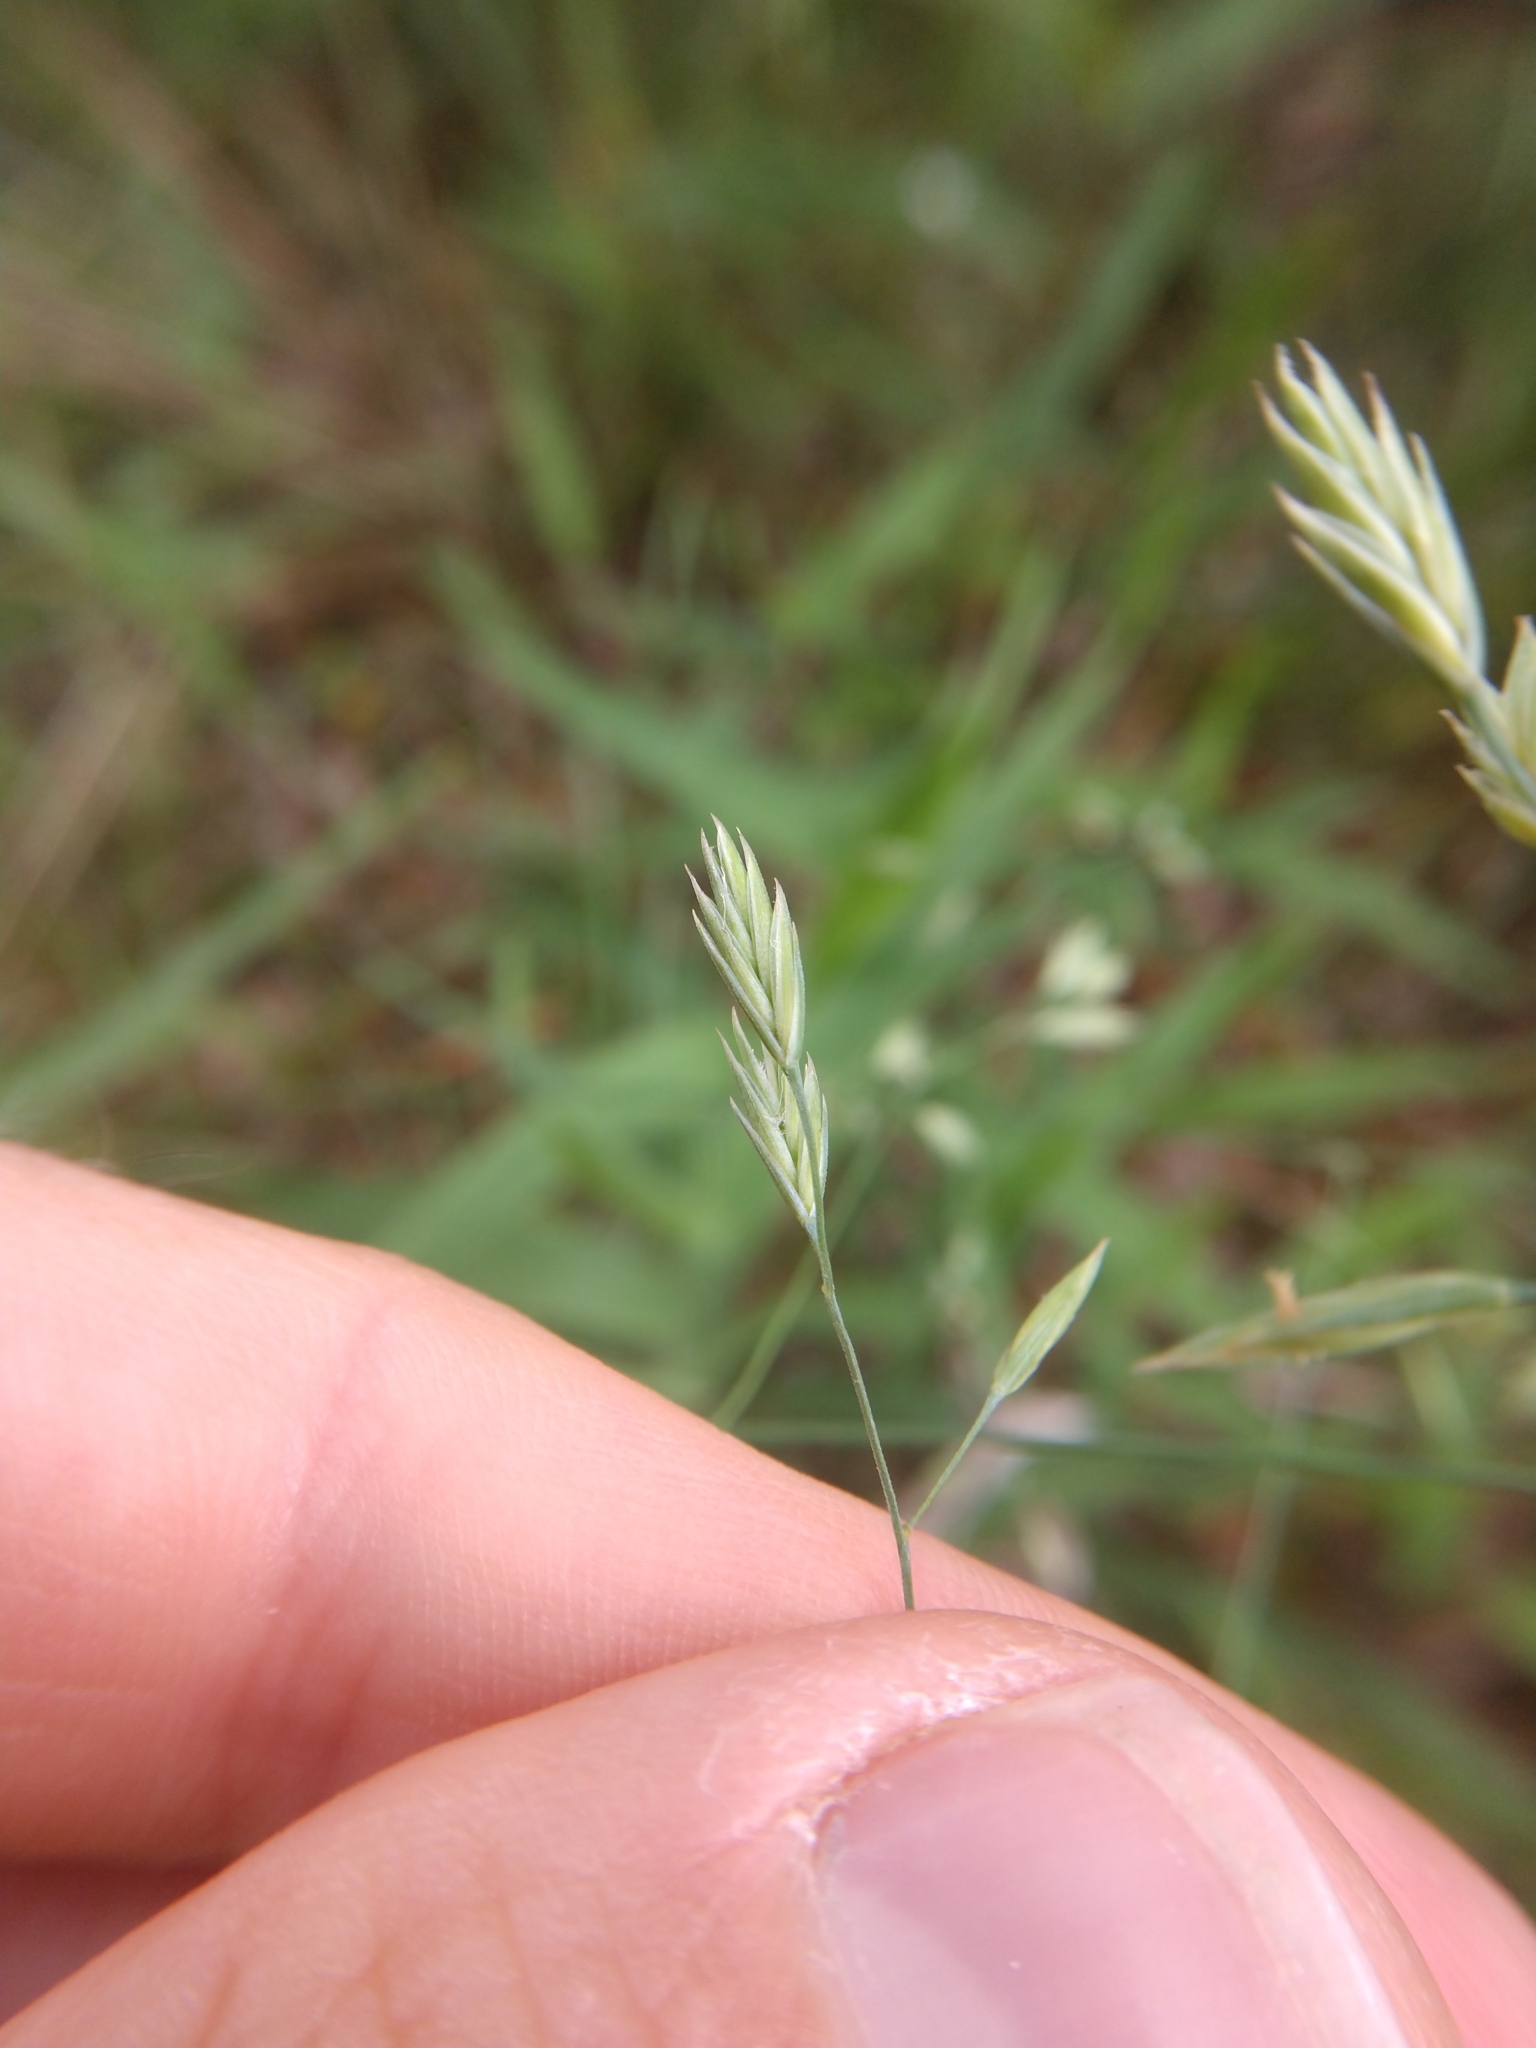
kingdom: Plantae
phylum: Tracheophyta
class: Liliopsida
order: Poales
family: Poaceae
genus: Festuca
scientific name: Festuca versuta
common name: Texas fescue
